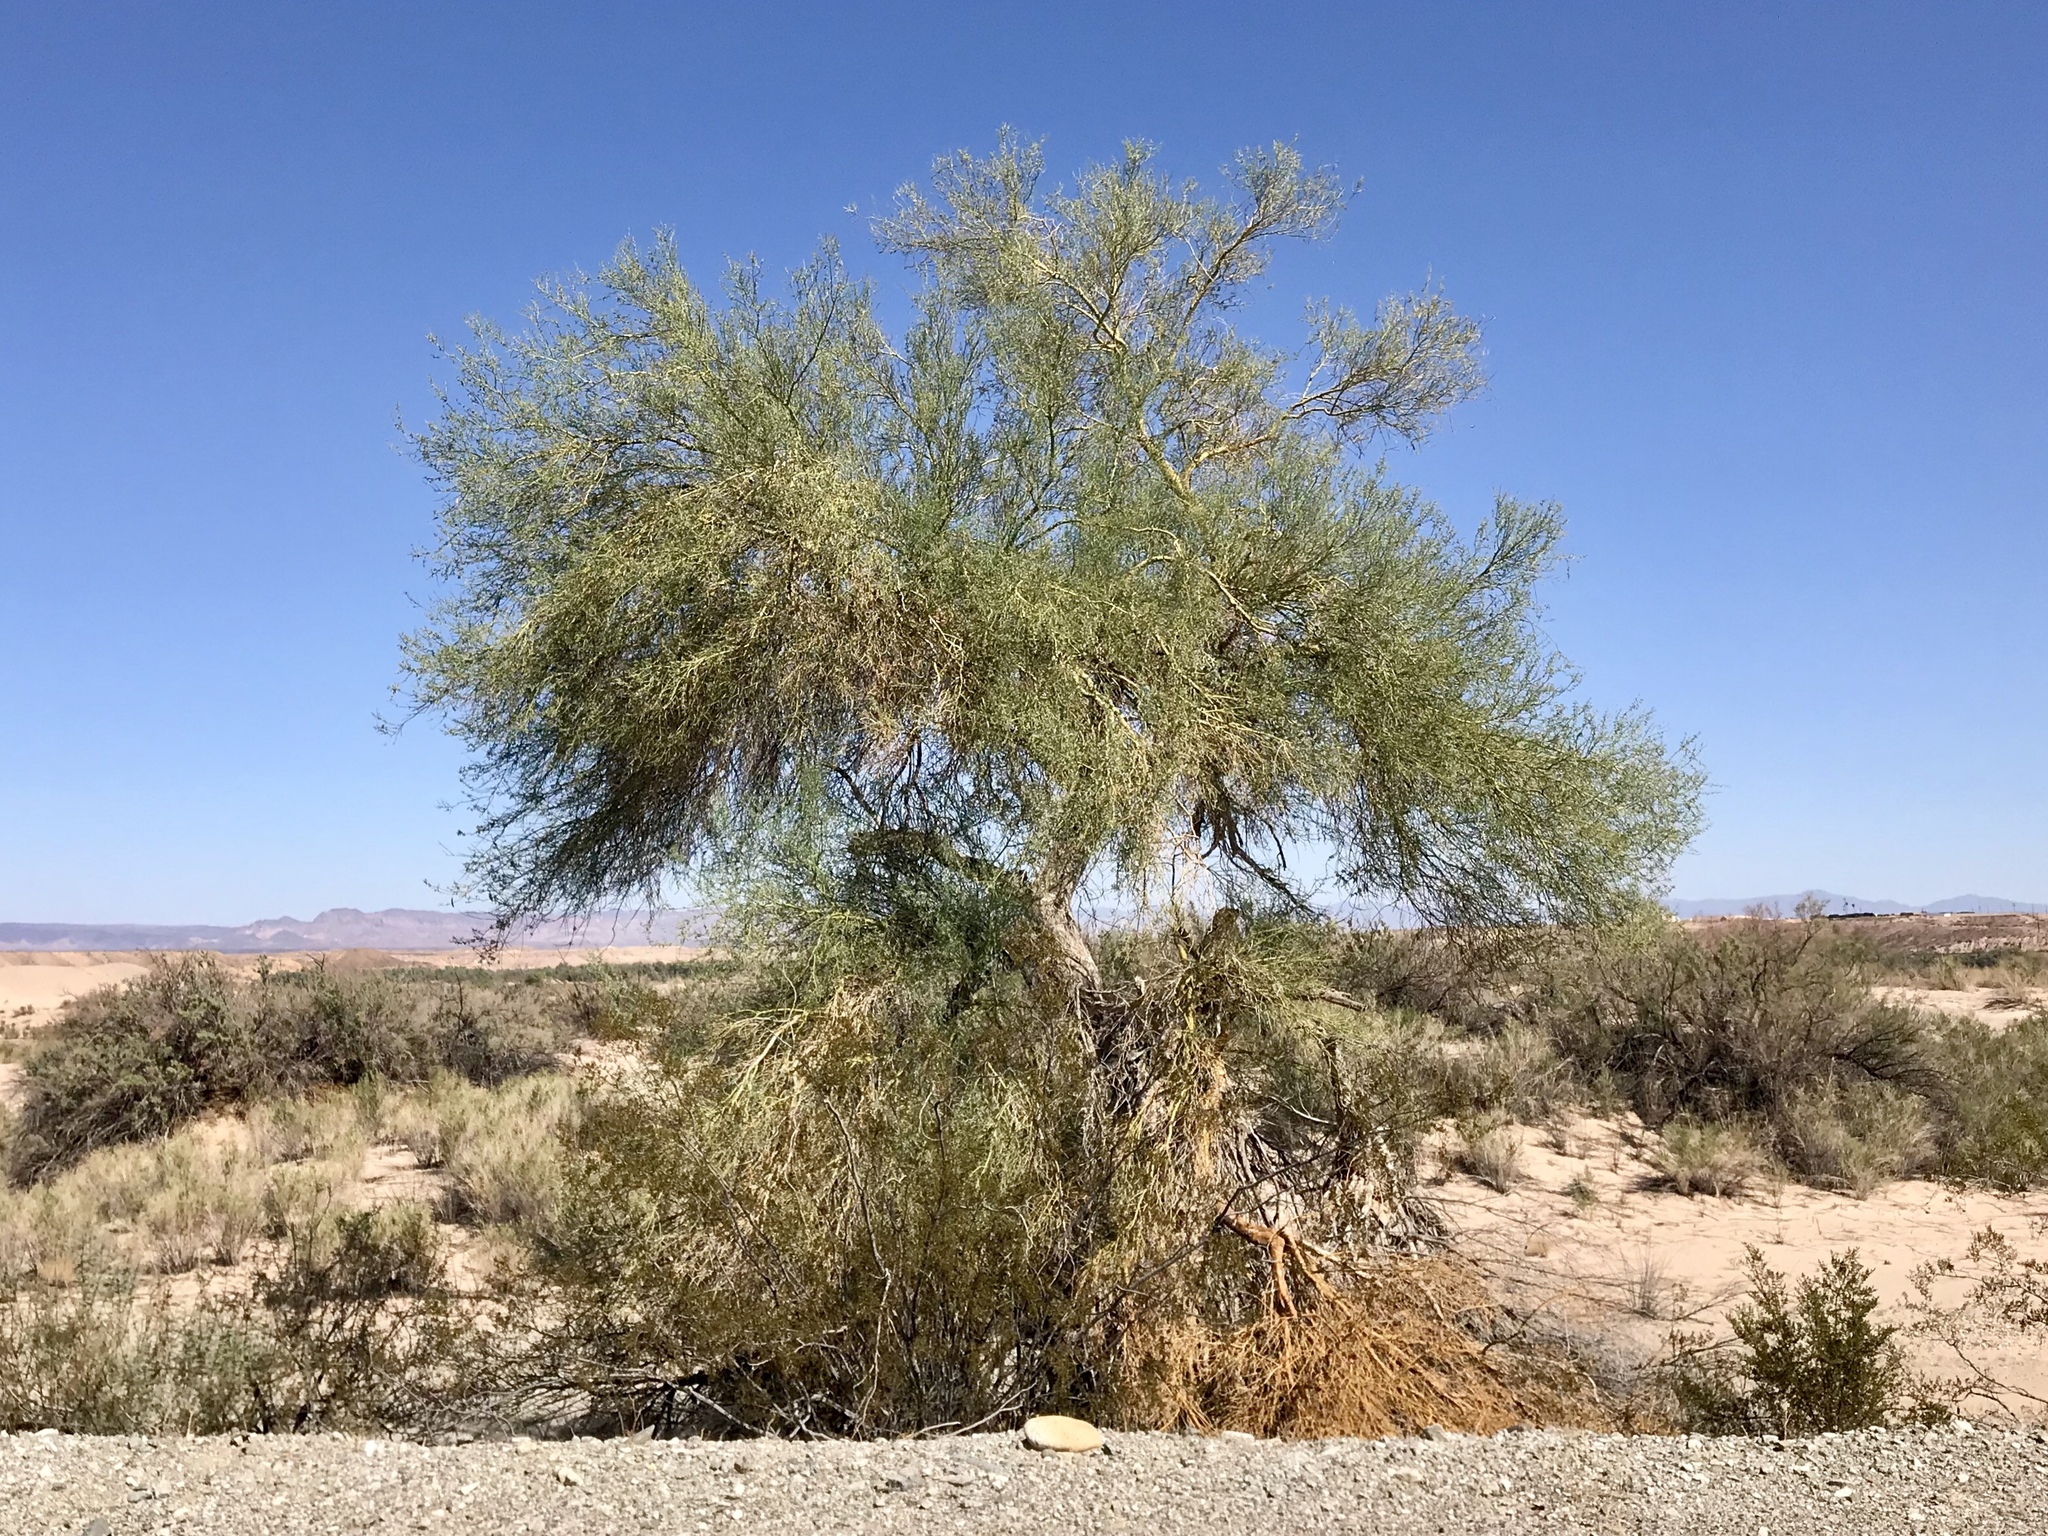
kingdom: Plantae
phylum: Tracheophyta
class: Magnoliopsida
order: Fabales
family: Fabaceae
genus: Parkinsonia
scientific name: Parkinsonia florida
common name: Blue paloverde
